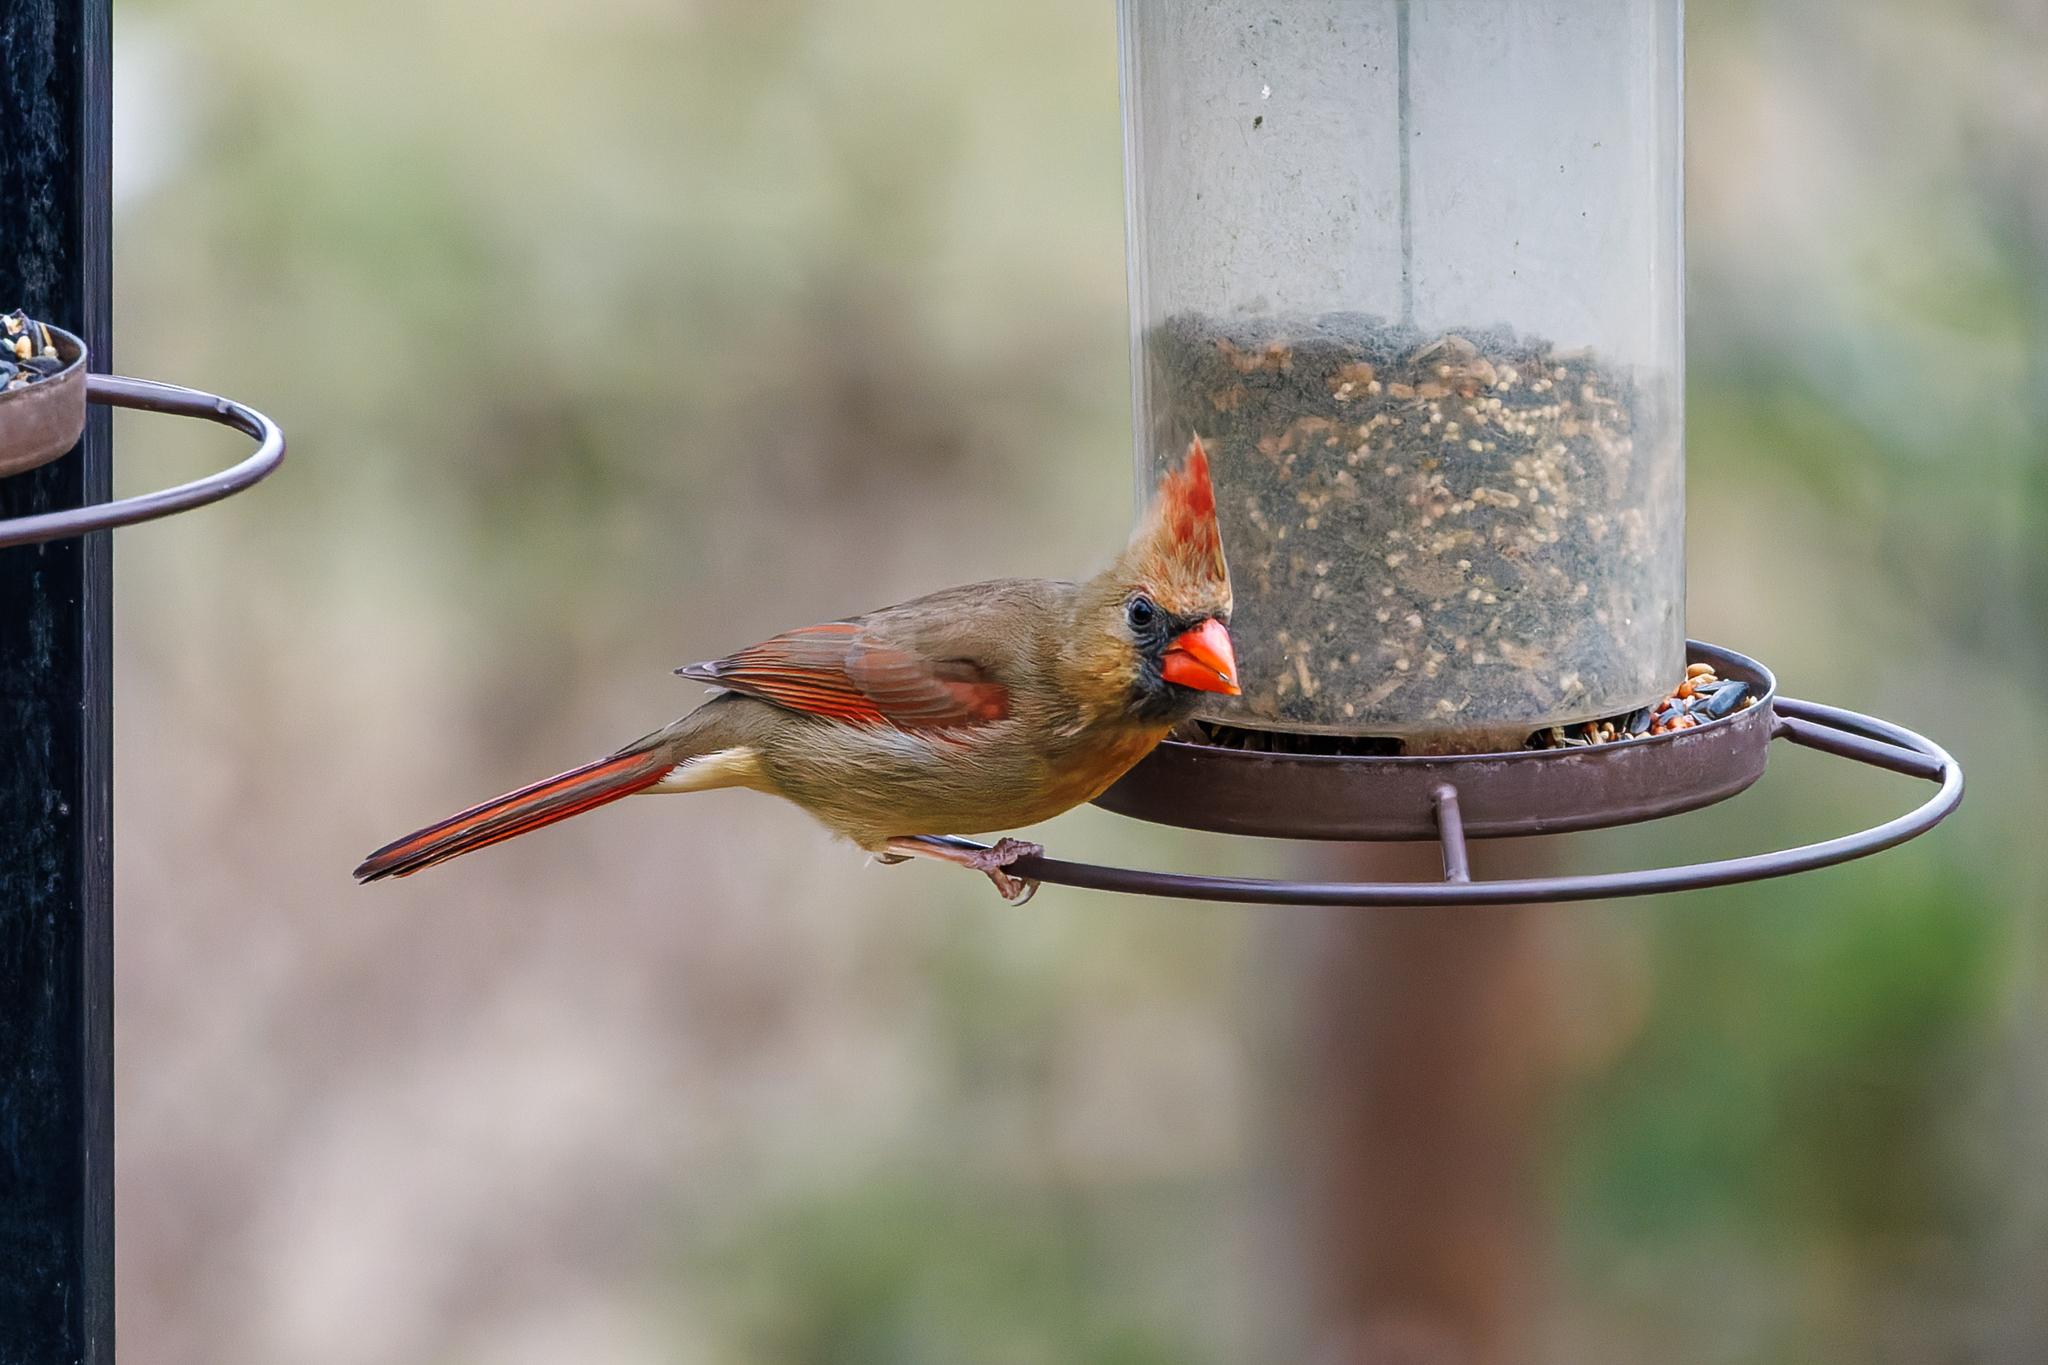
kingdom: Animalia
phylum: Chordata
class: Aves
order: Passeriformes
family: Cardinalidae
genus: Cardinalis
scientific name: Cardinalis cardinalis
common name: Northern cardinal
